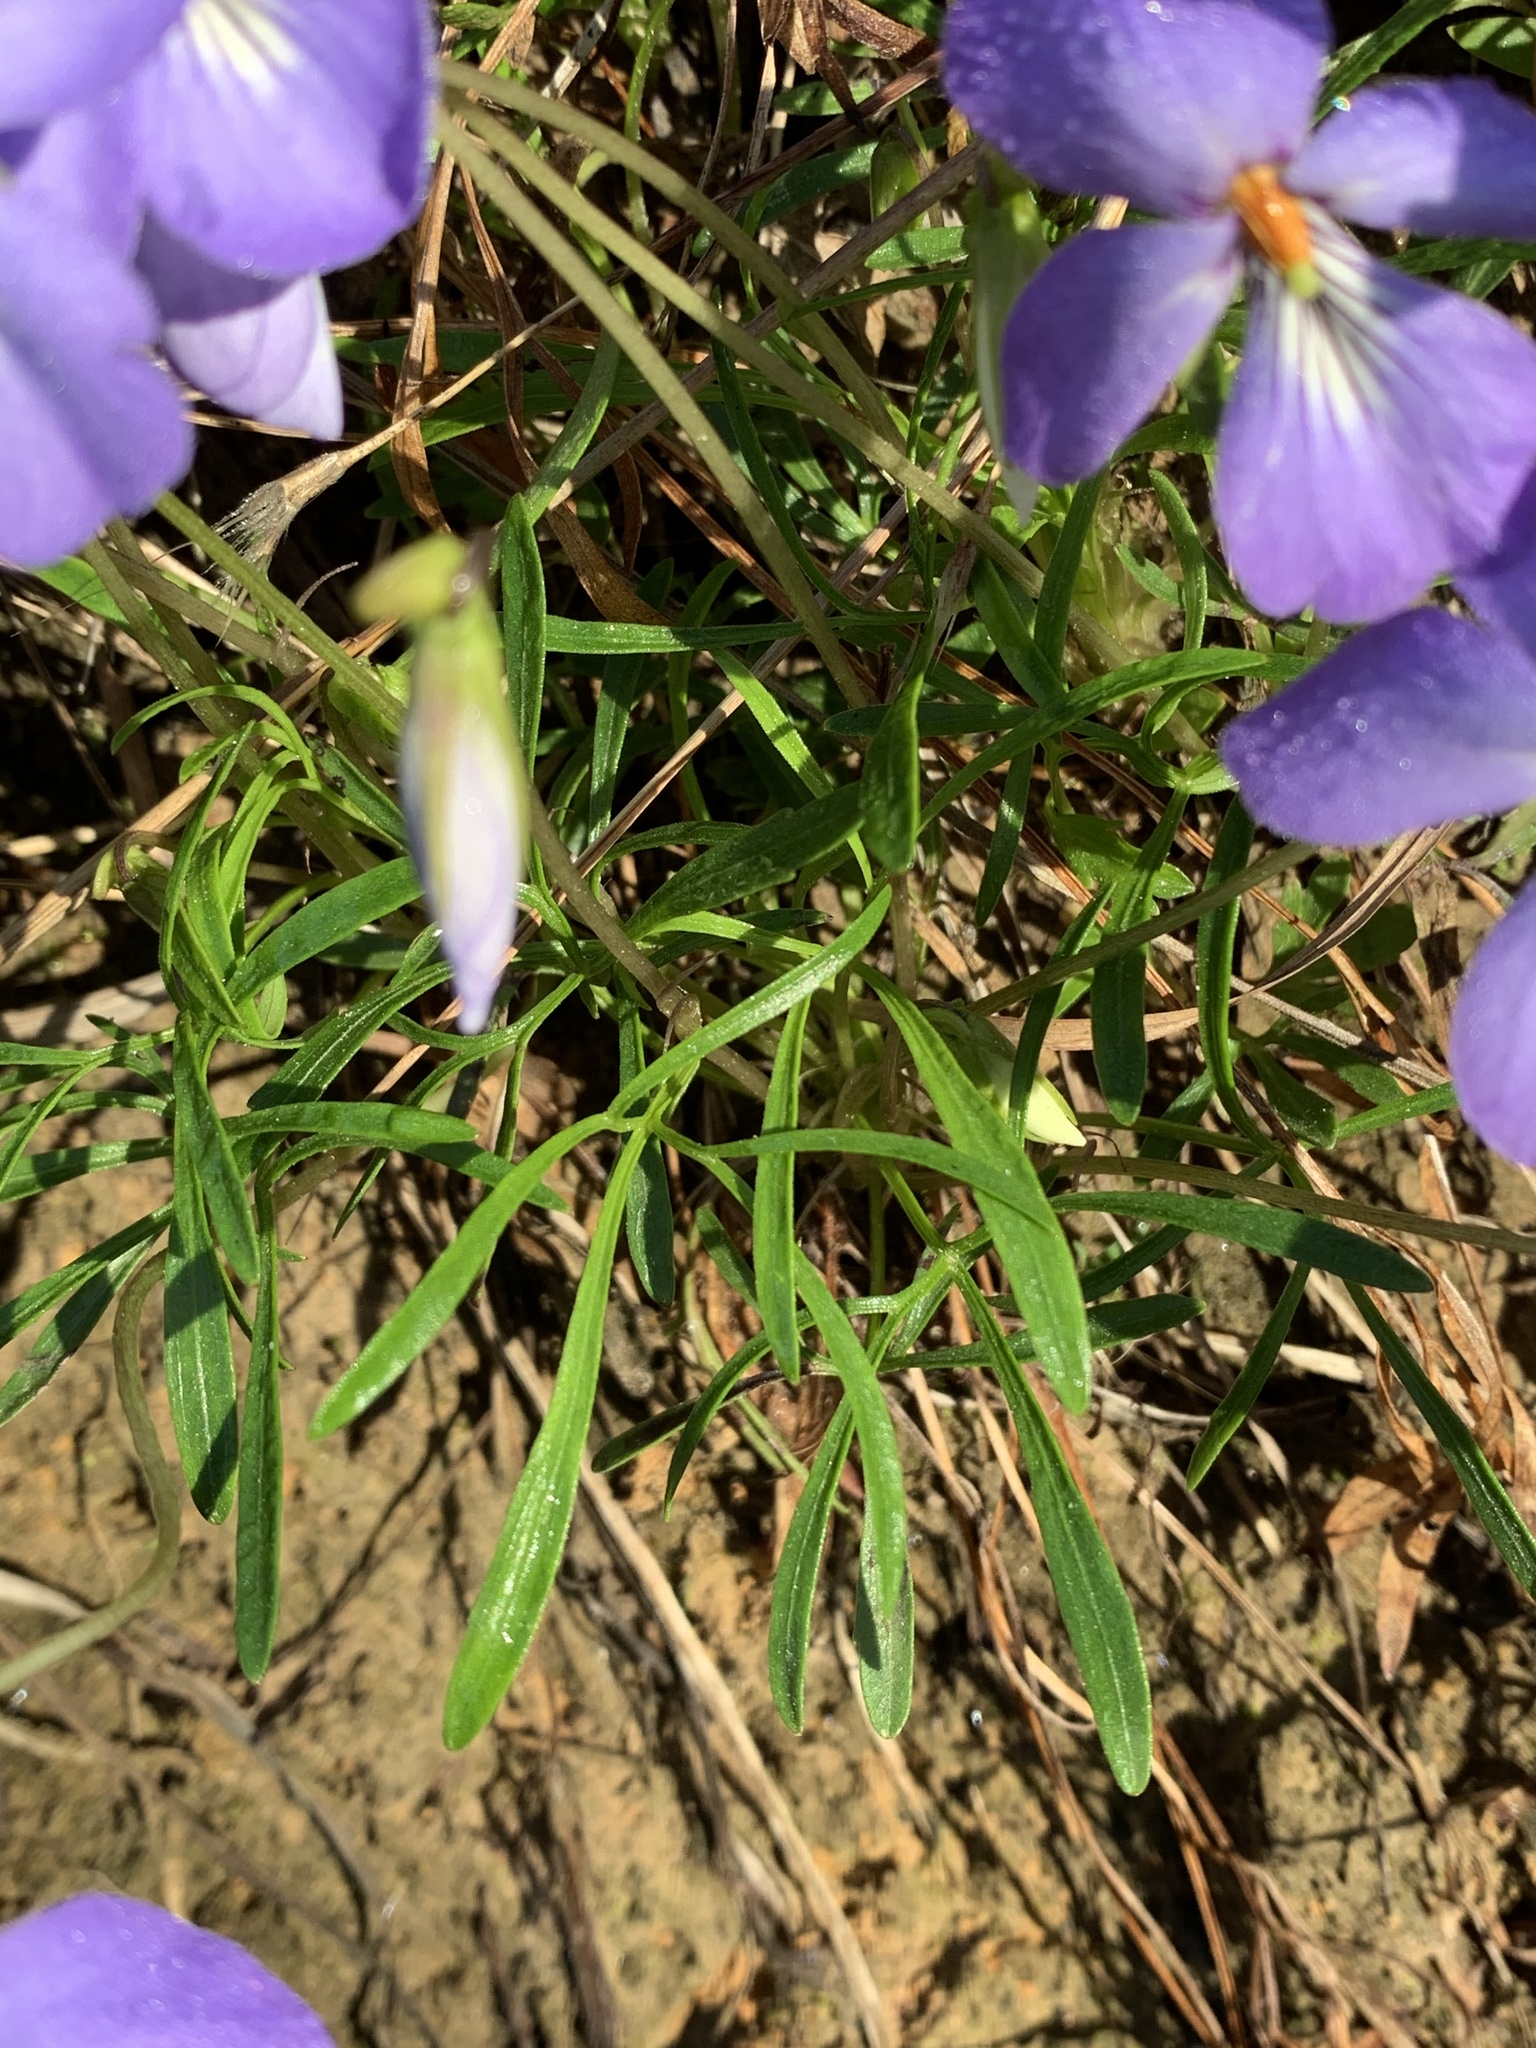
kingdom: Plantae
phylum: Tracheophyta
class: Magnoliopsida
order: Malpighiales
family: Violaceae
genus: Viola
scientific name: Viola pedata
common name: Pansy violet
